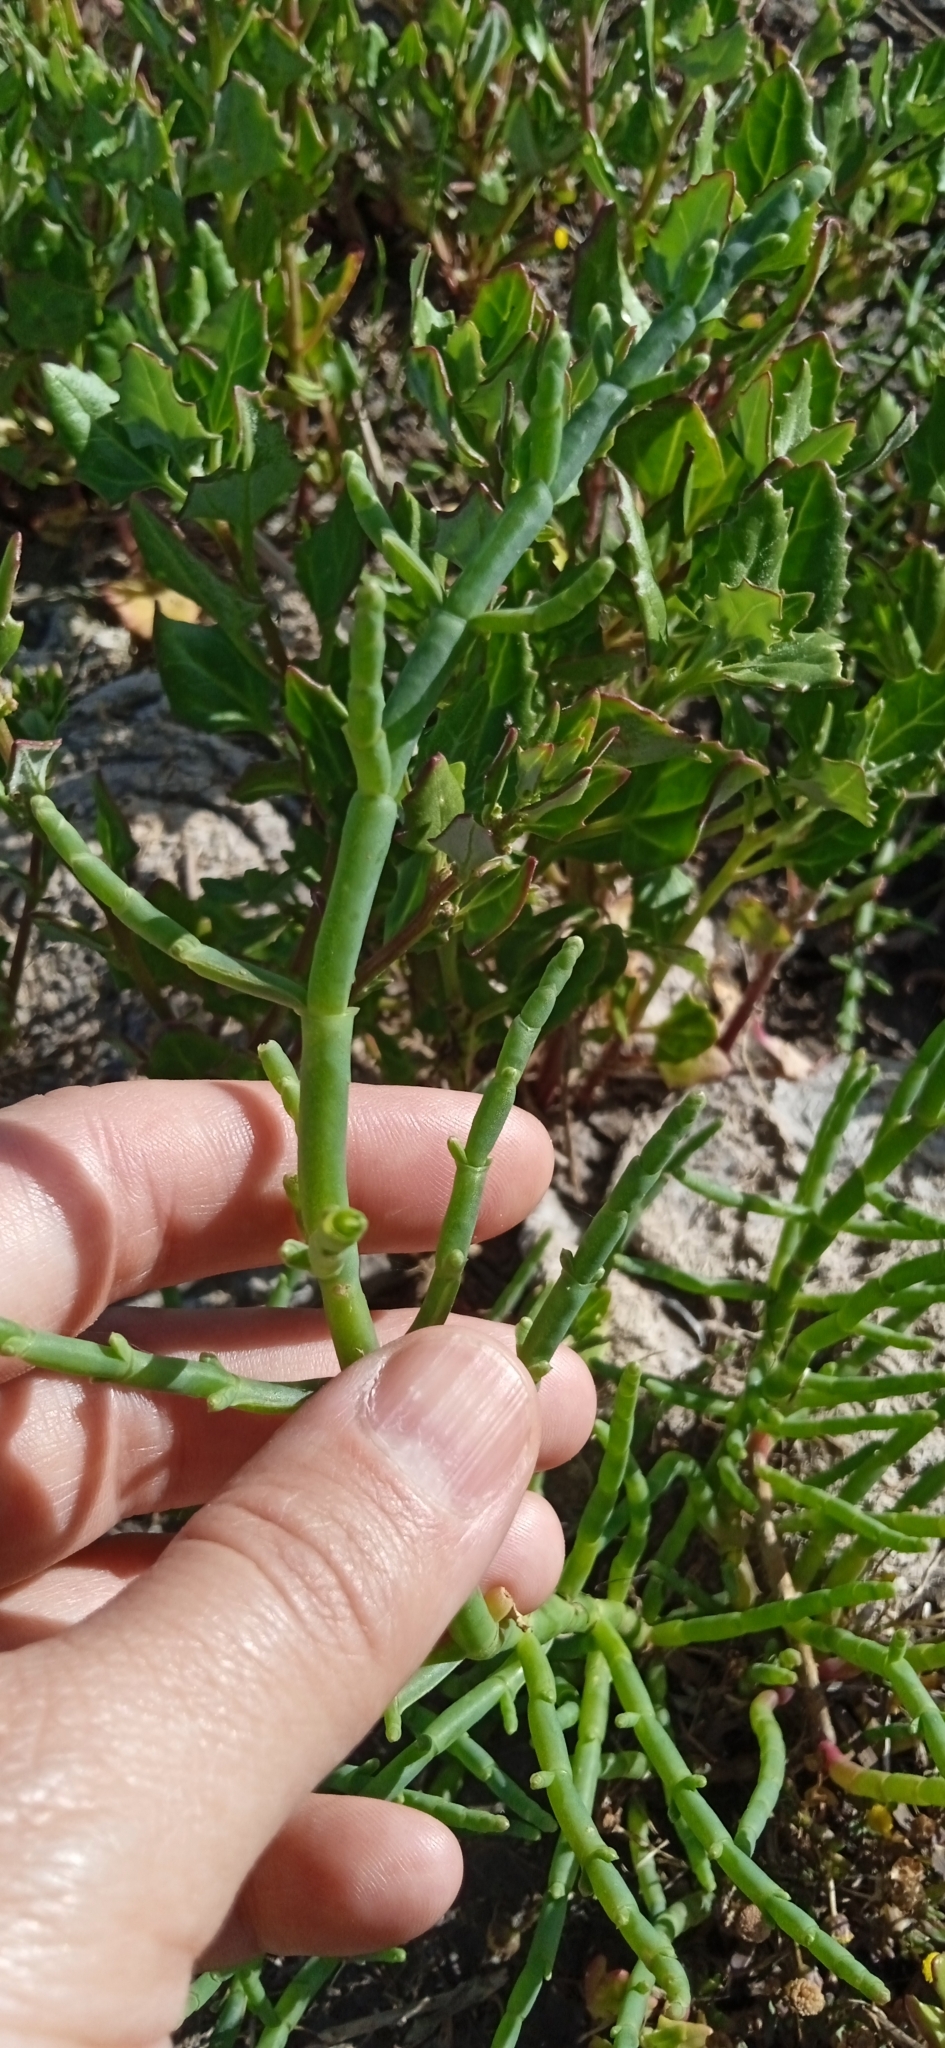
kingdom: Plantae
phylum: Tracheophyta
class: Magnoliopsida
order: Caryophyllales
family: Amaranthaceae
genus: Salicornia
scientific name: Salicornia ambigua
